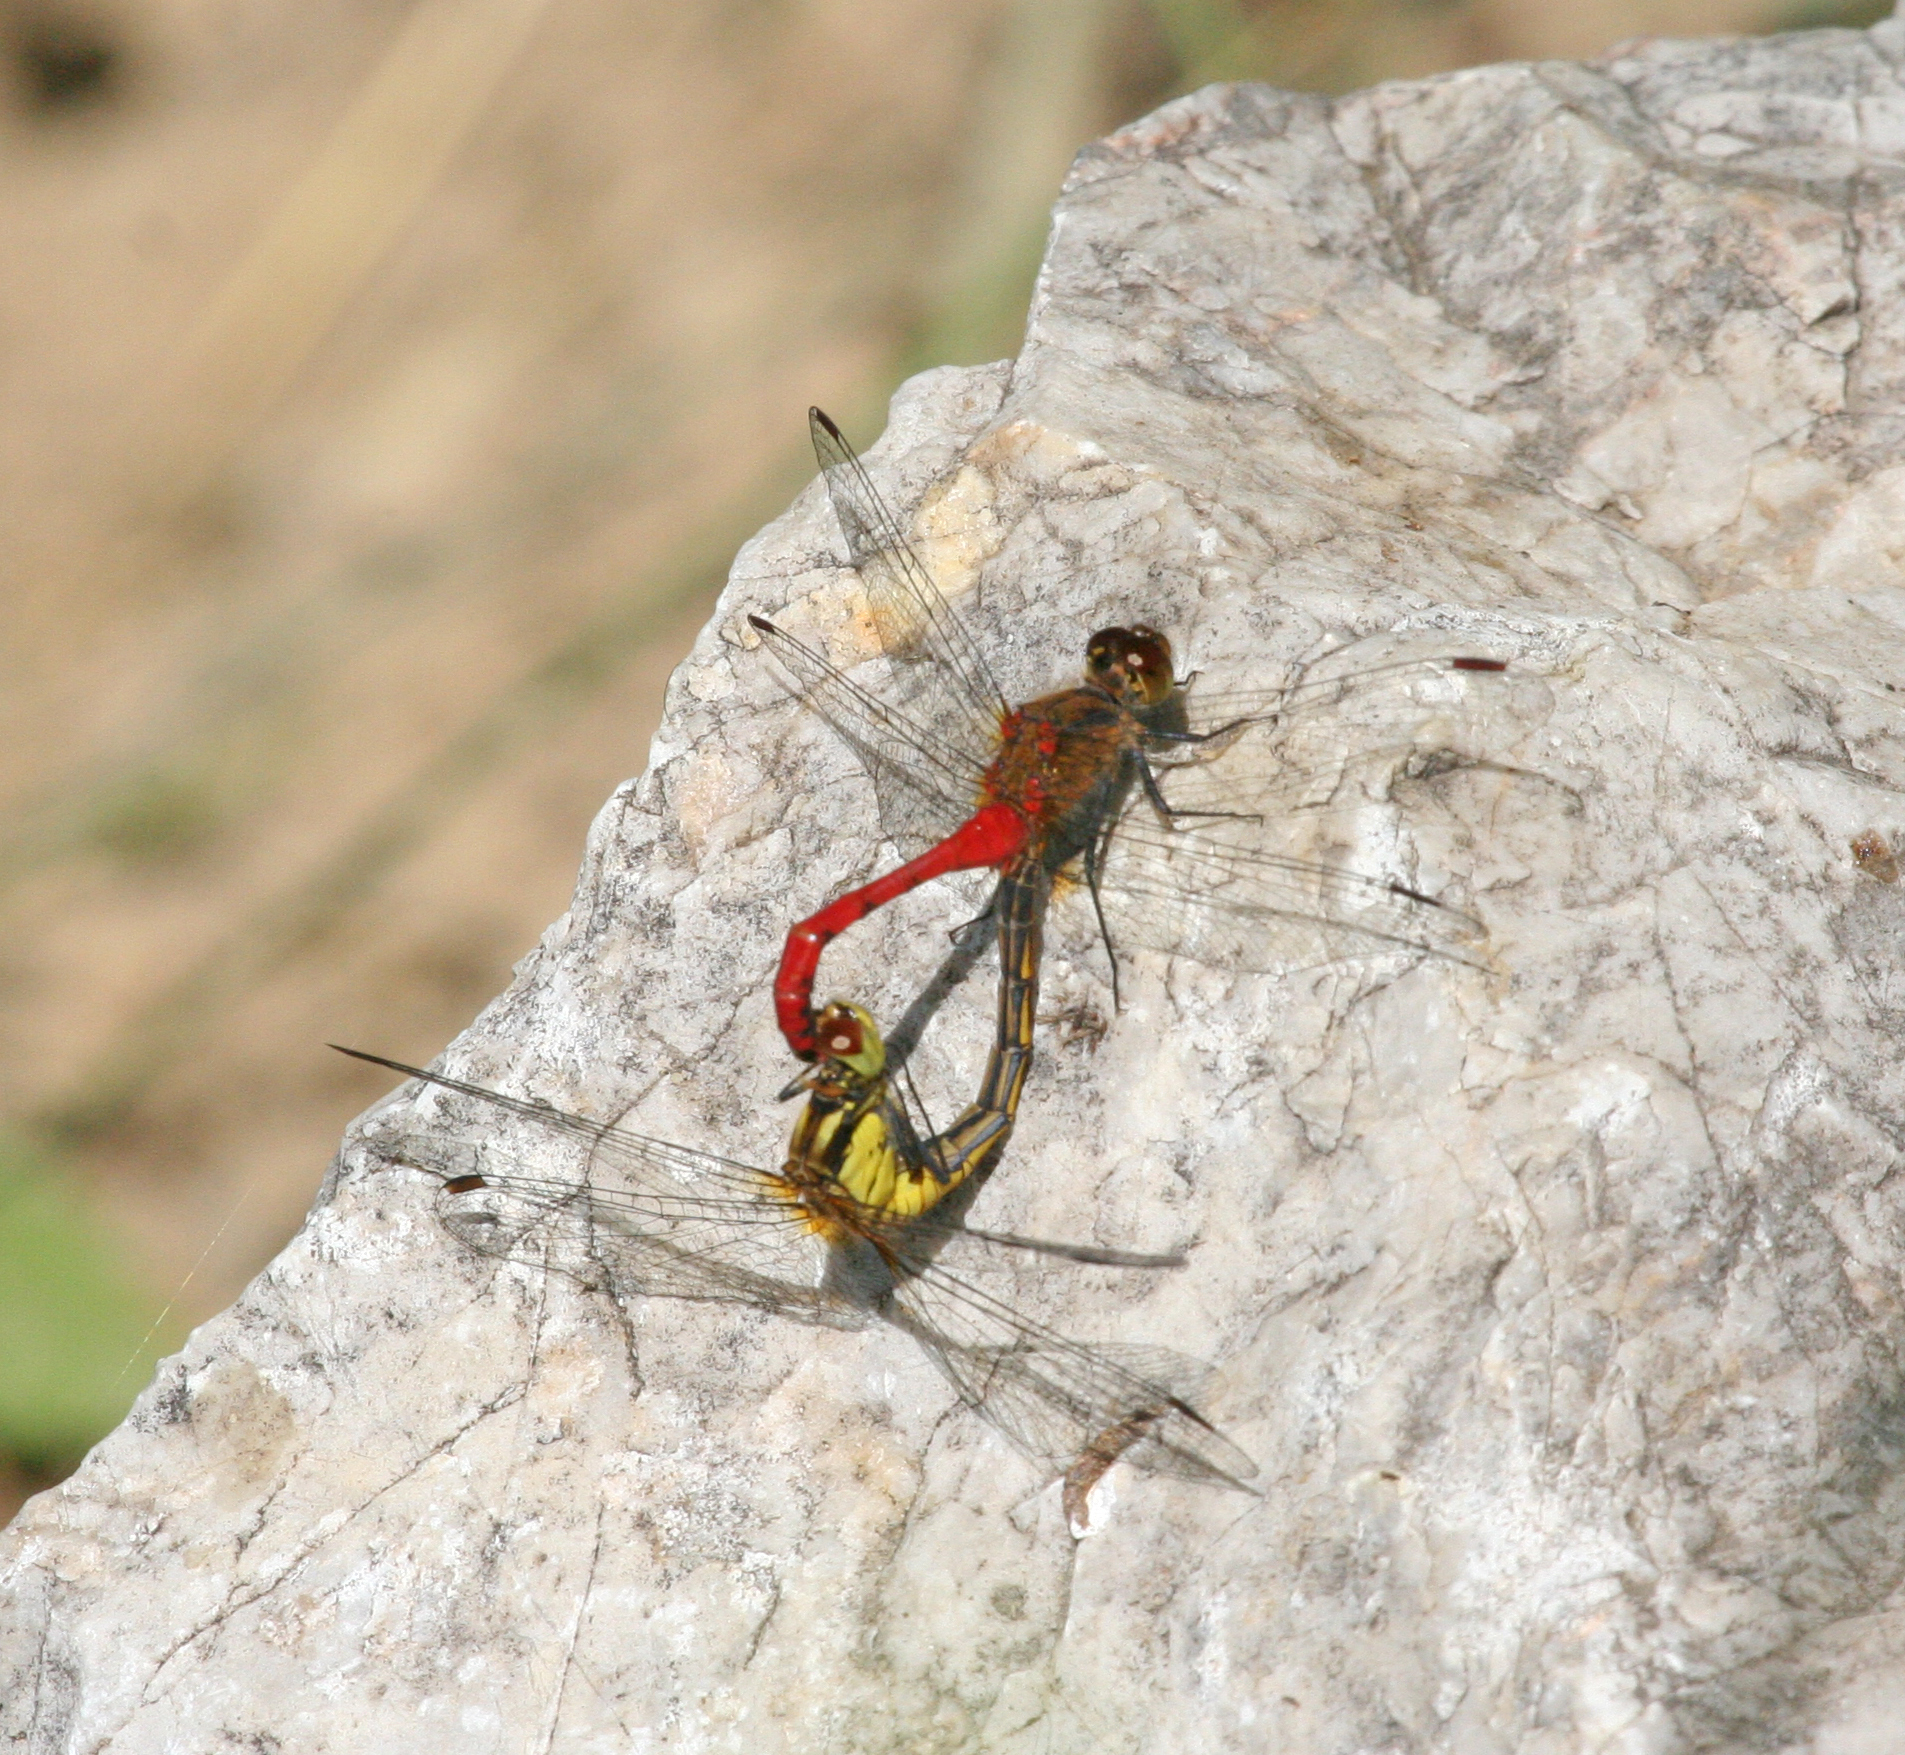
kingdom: Animalia
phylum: Arthropoda
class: Insecta
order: Odonata
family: Libellulidae
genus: Sympetrum
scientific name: Sympetrum eroticum
